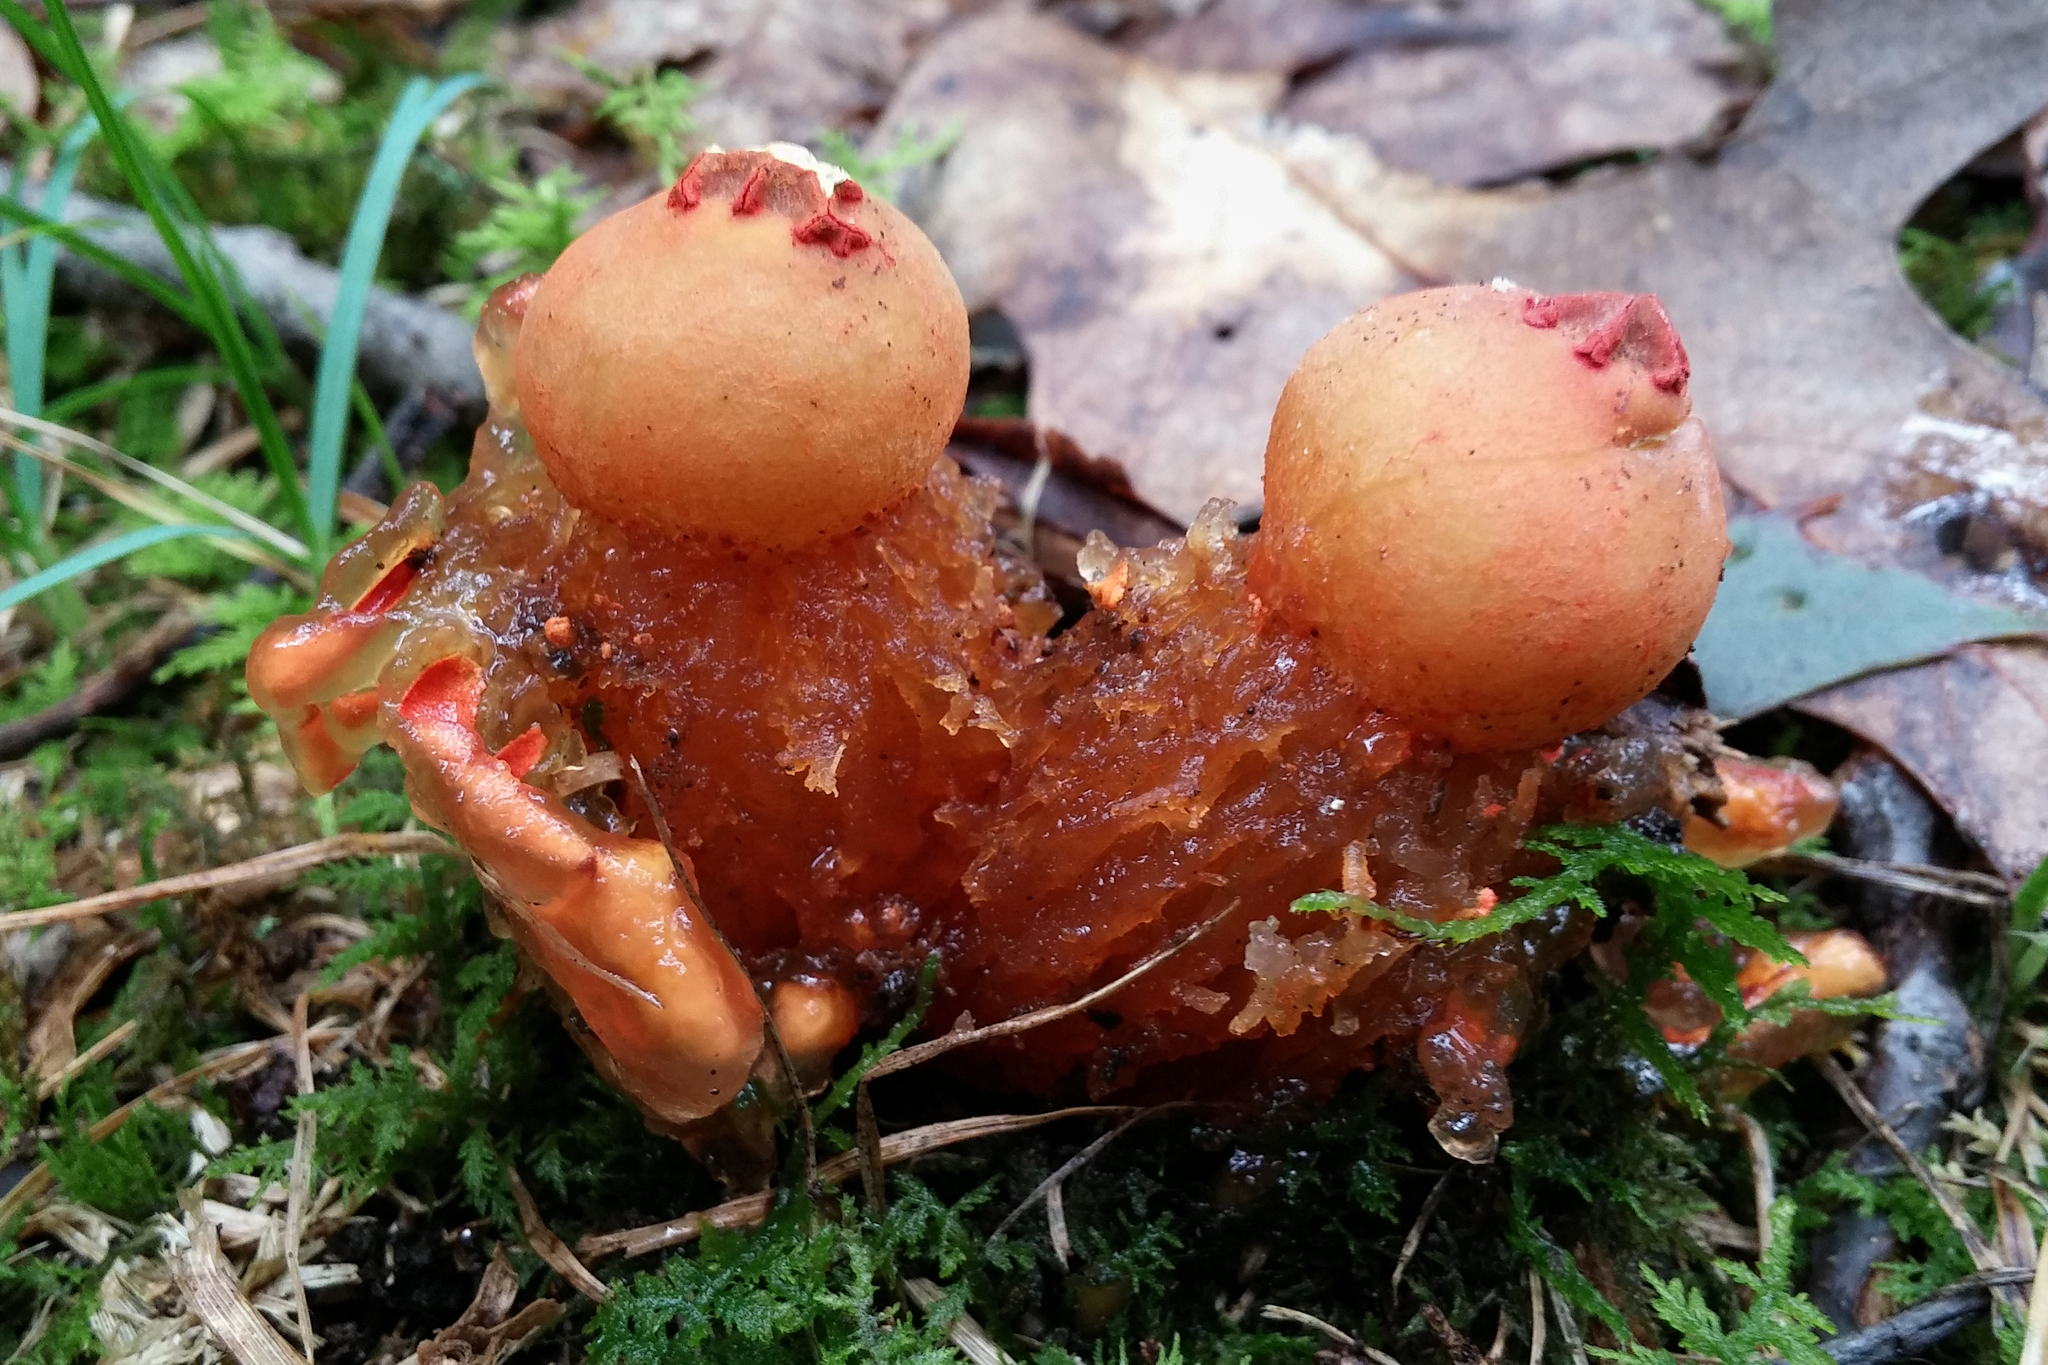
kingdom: Fungi
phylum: Basidiomycota
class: Agaricomycetes
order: Boletales
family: Calostomataceae
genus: Calostoma
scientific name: Calostoma cinnabarinum
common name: Stalked puffball-in-aspic
